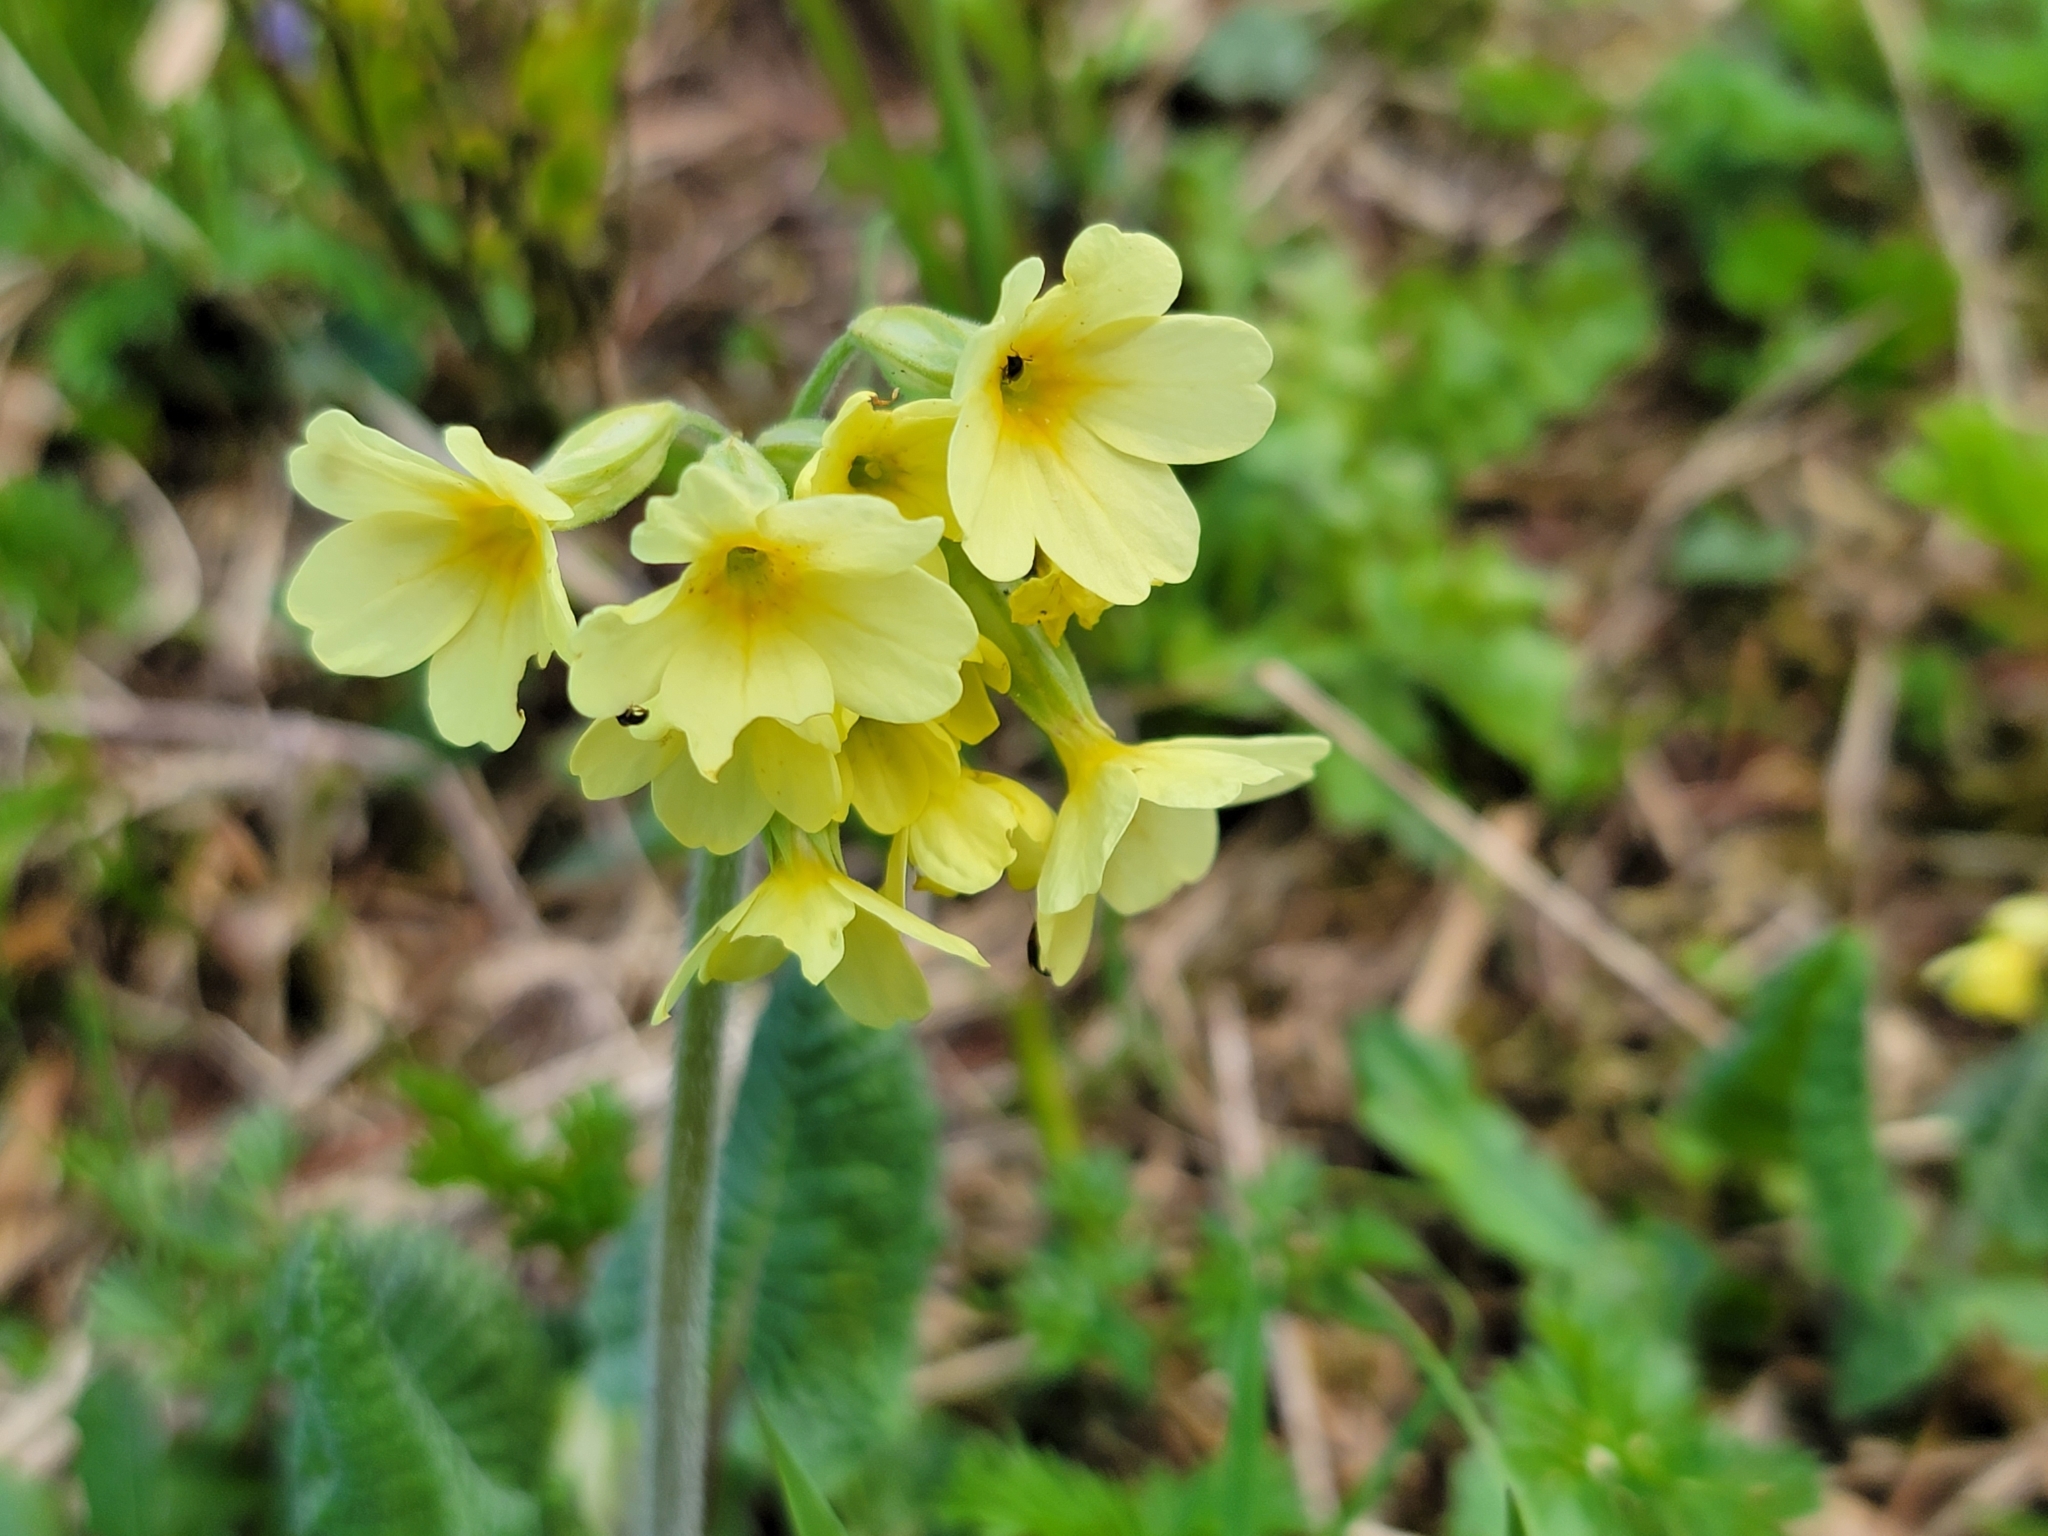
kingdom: Plantae
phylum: Tracheophyta
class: Magnoliopsida
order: Ericales
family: Primulaceae
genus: Primula
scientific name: Primula elatior
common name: Oxlip
